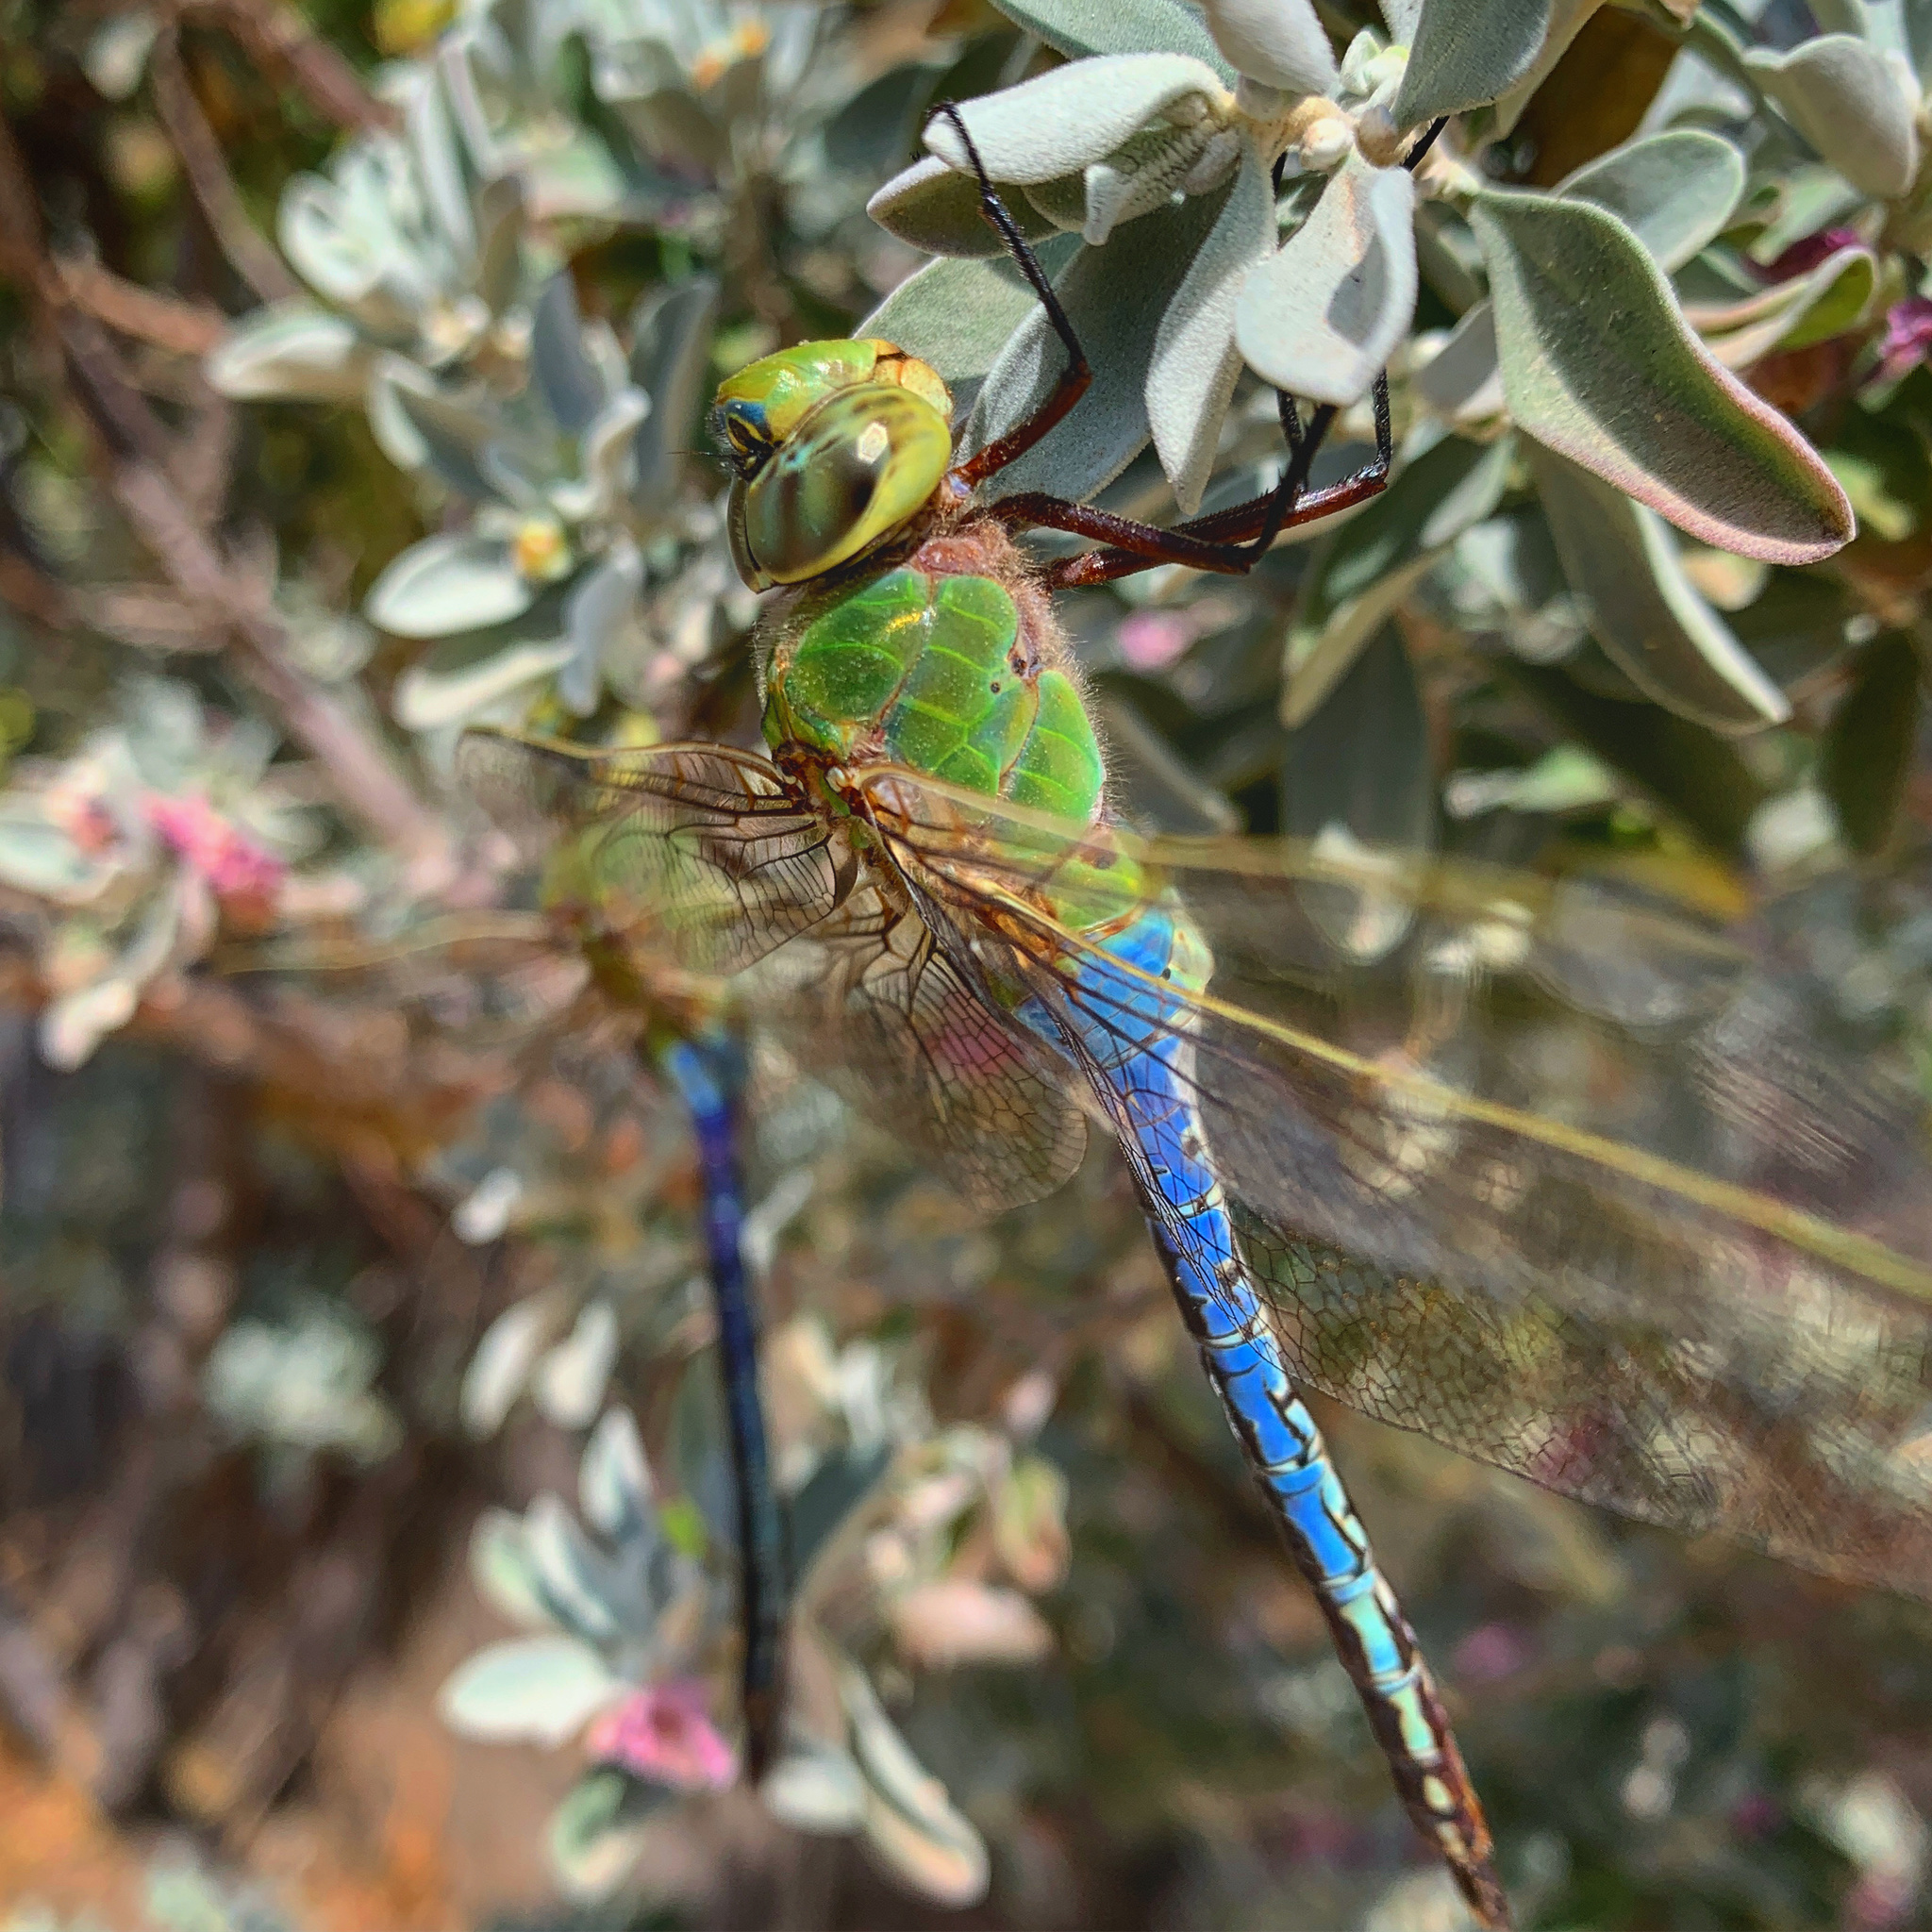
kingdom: Animalia
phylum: Arthropoda
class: Insecta
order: Odonata
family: Aeshnidae
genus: Anax
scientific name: Anax junius
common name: Common green darner
